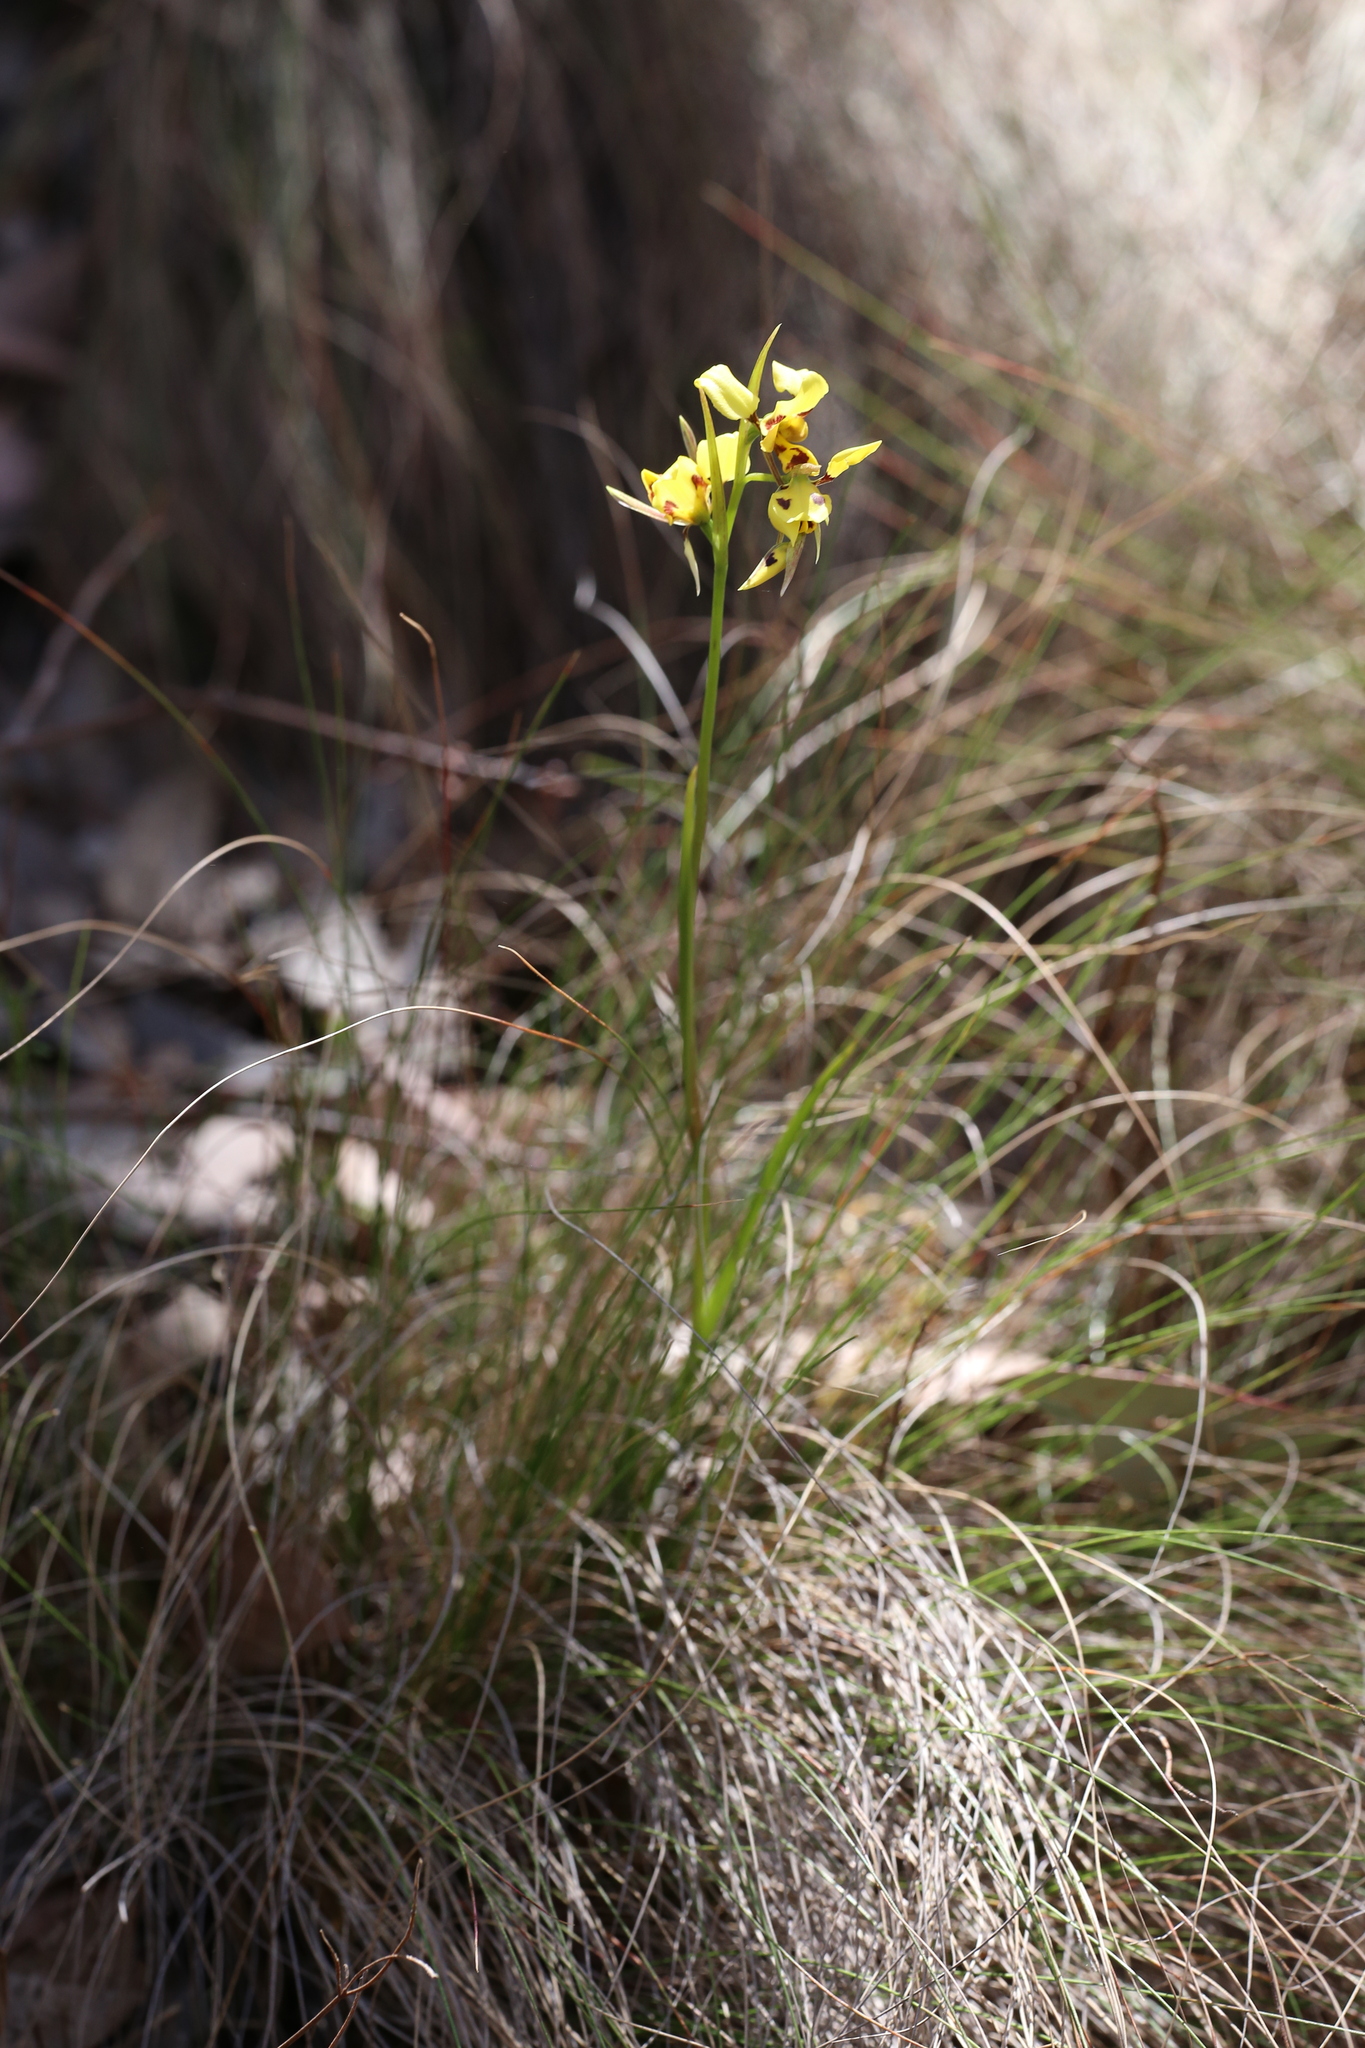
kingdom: Plantae
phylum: Tracheophyta
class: Liliopsida
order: Asparagales
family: Orchidaceae
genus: Diuris
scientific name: Diuris sulphurea
